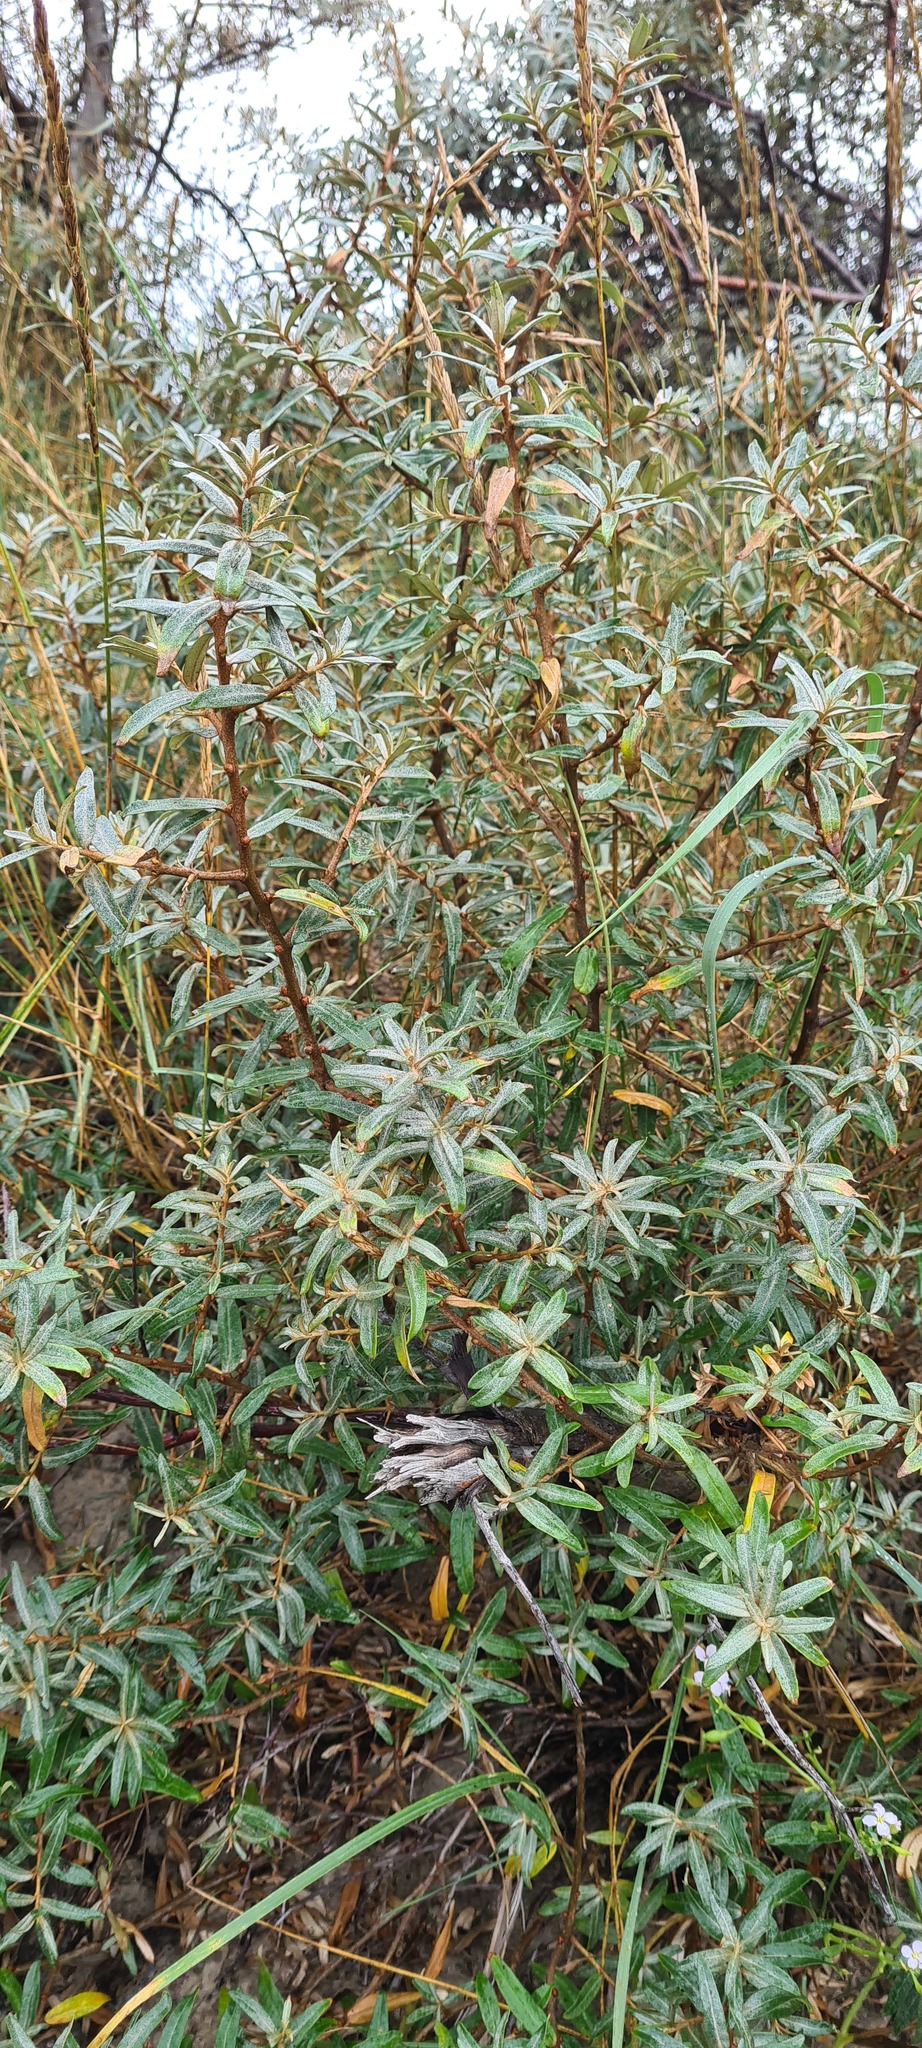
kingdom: Plantae
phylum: Tracheophyta
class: Magnoliopsida
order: Rosales
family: Elaeagnaceae
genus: Hippophae
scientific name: Hippophae rhamnoides
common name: Sea-buckthorn
